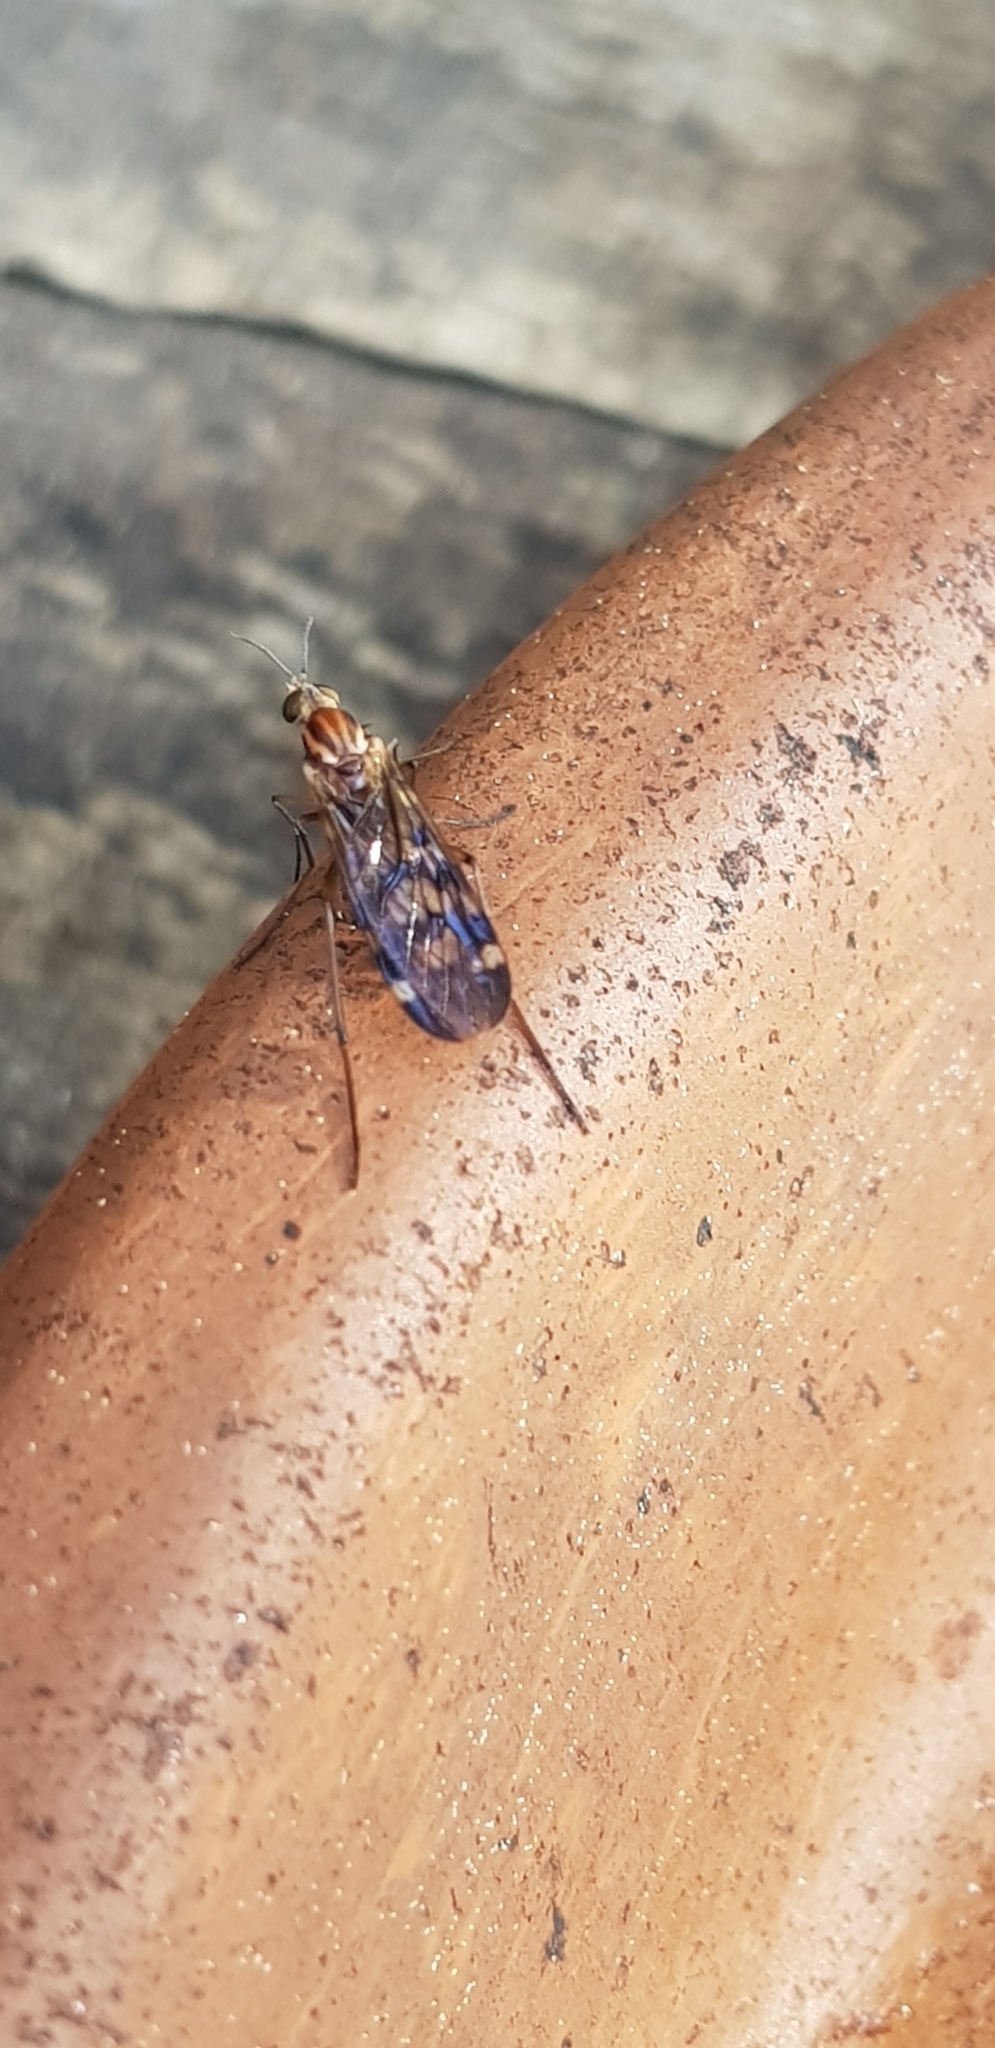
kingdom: Animalia
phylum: Arthropoda
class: Insecta
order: Diptera
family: Anisopodidae
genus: Sylvicola
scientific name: Sylvicola notatus
